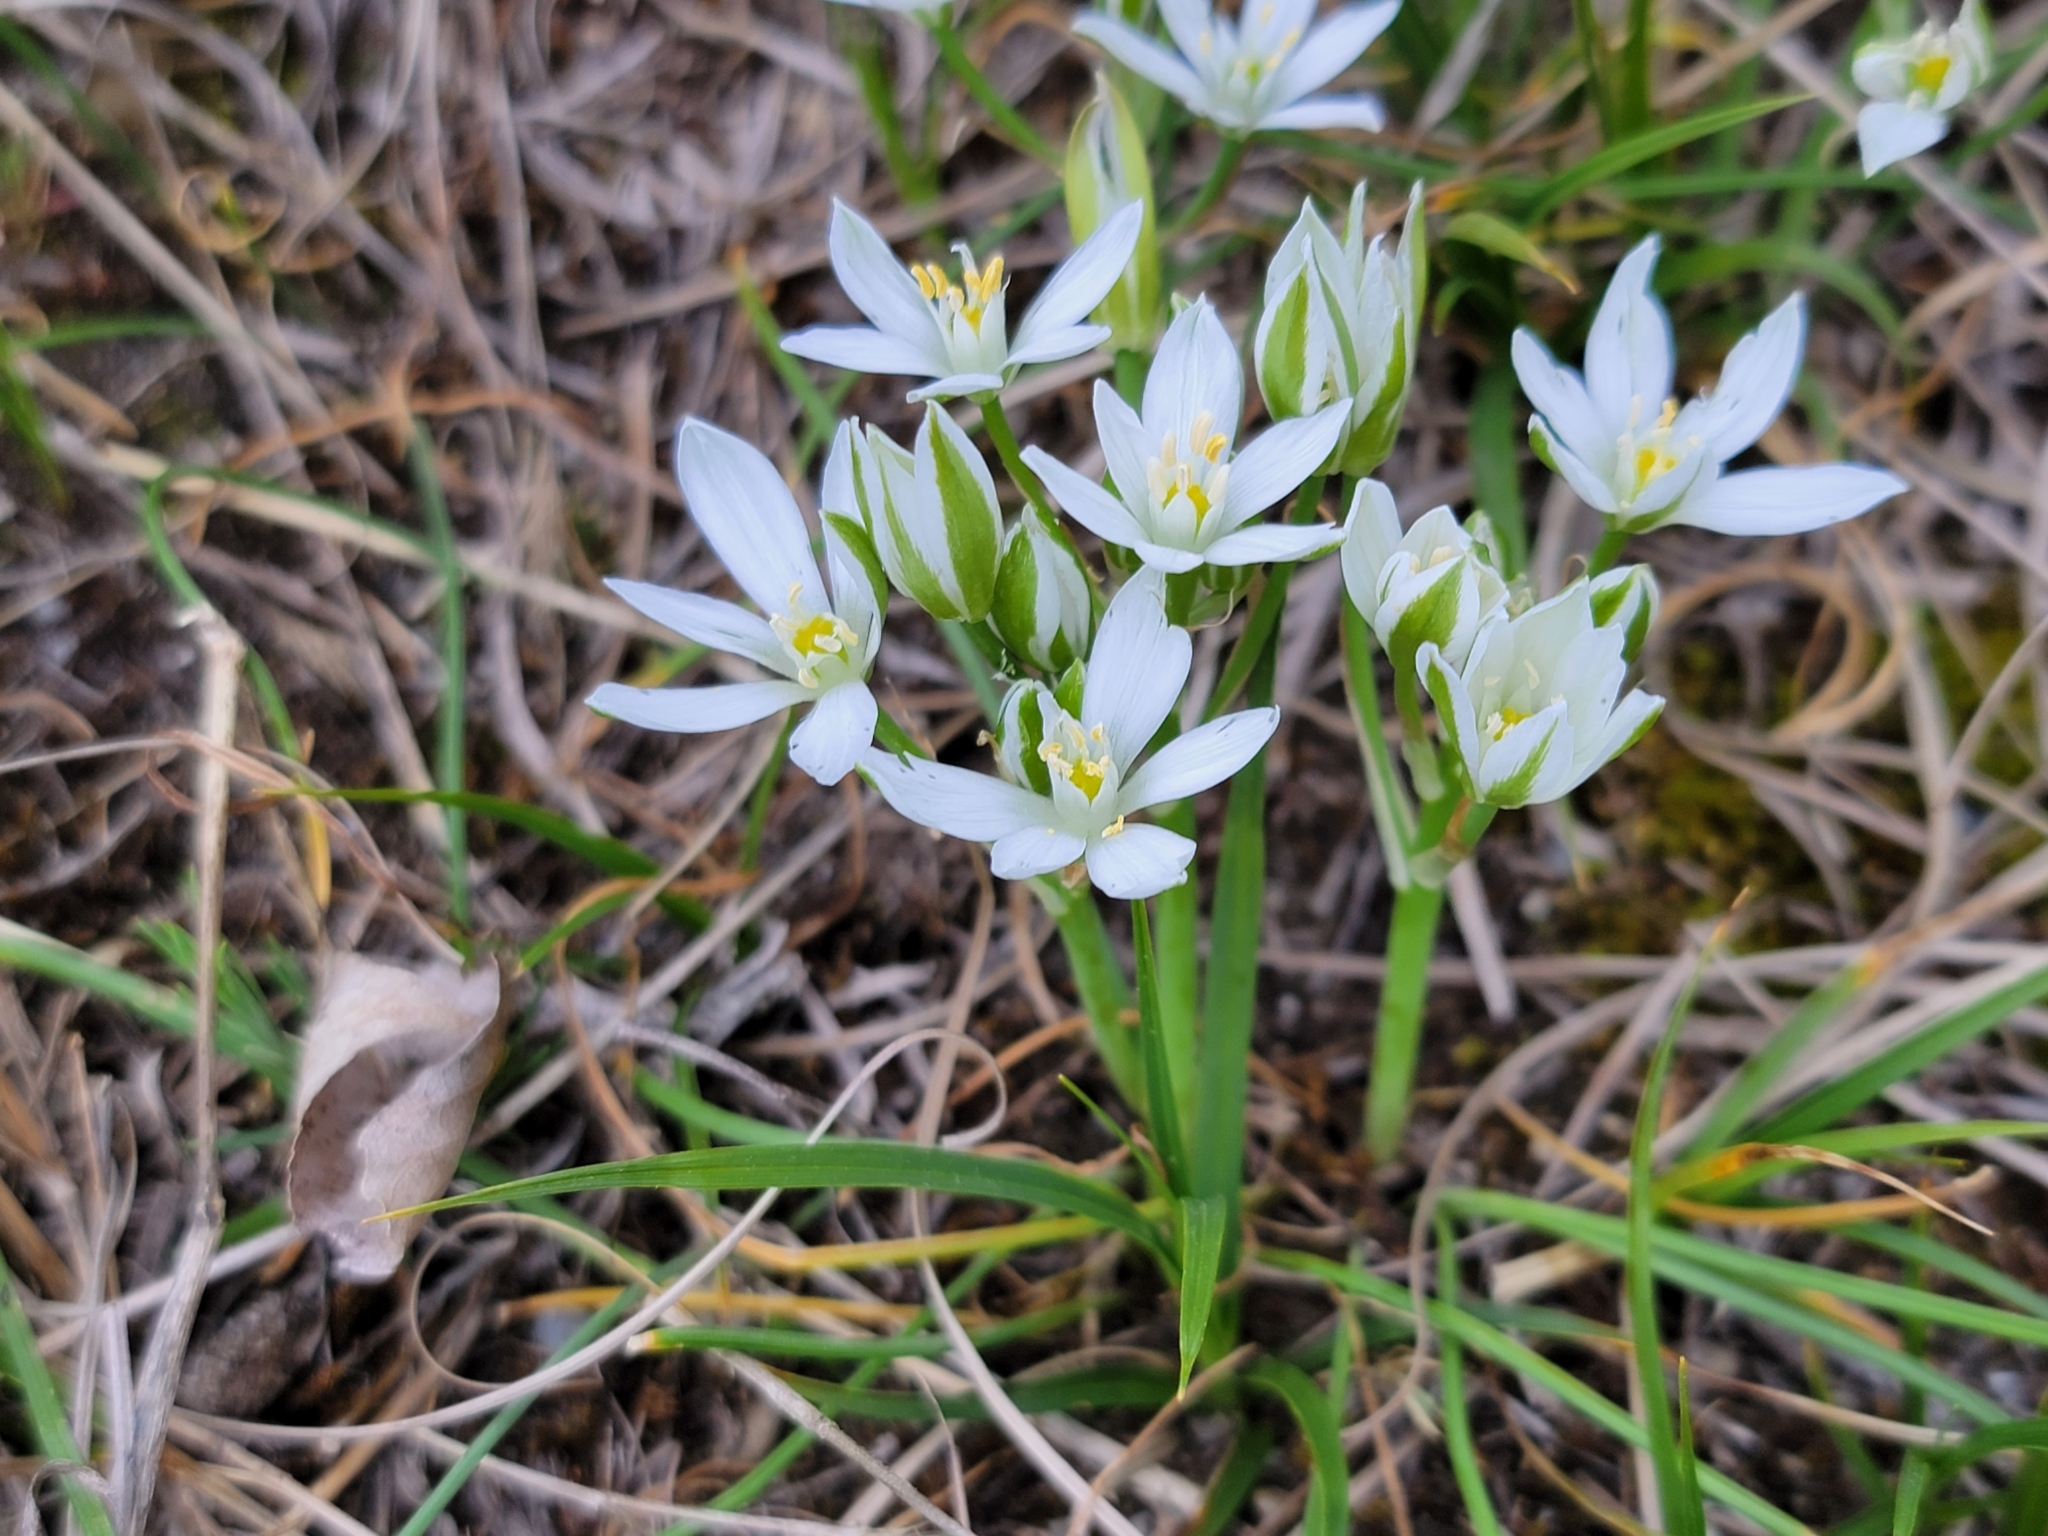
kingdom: Plantae
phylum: Tracheophyta
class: Liliopsida
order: Asparagales
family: Asparagaceae
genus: Ornithogalum
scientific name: Ornithogalum orthophyllum
